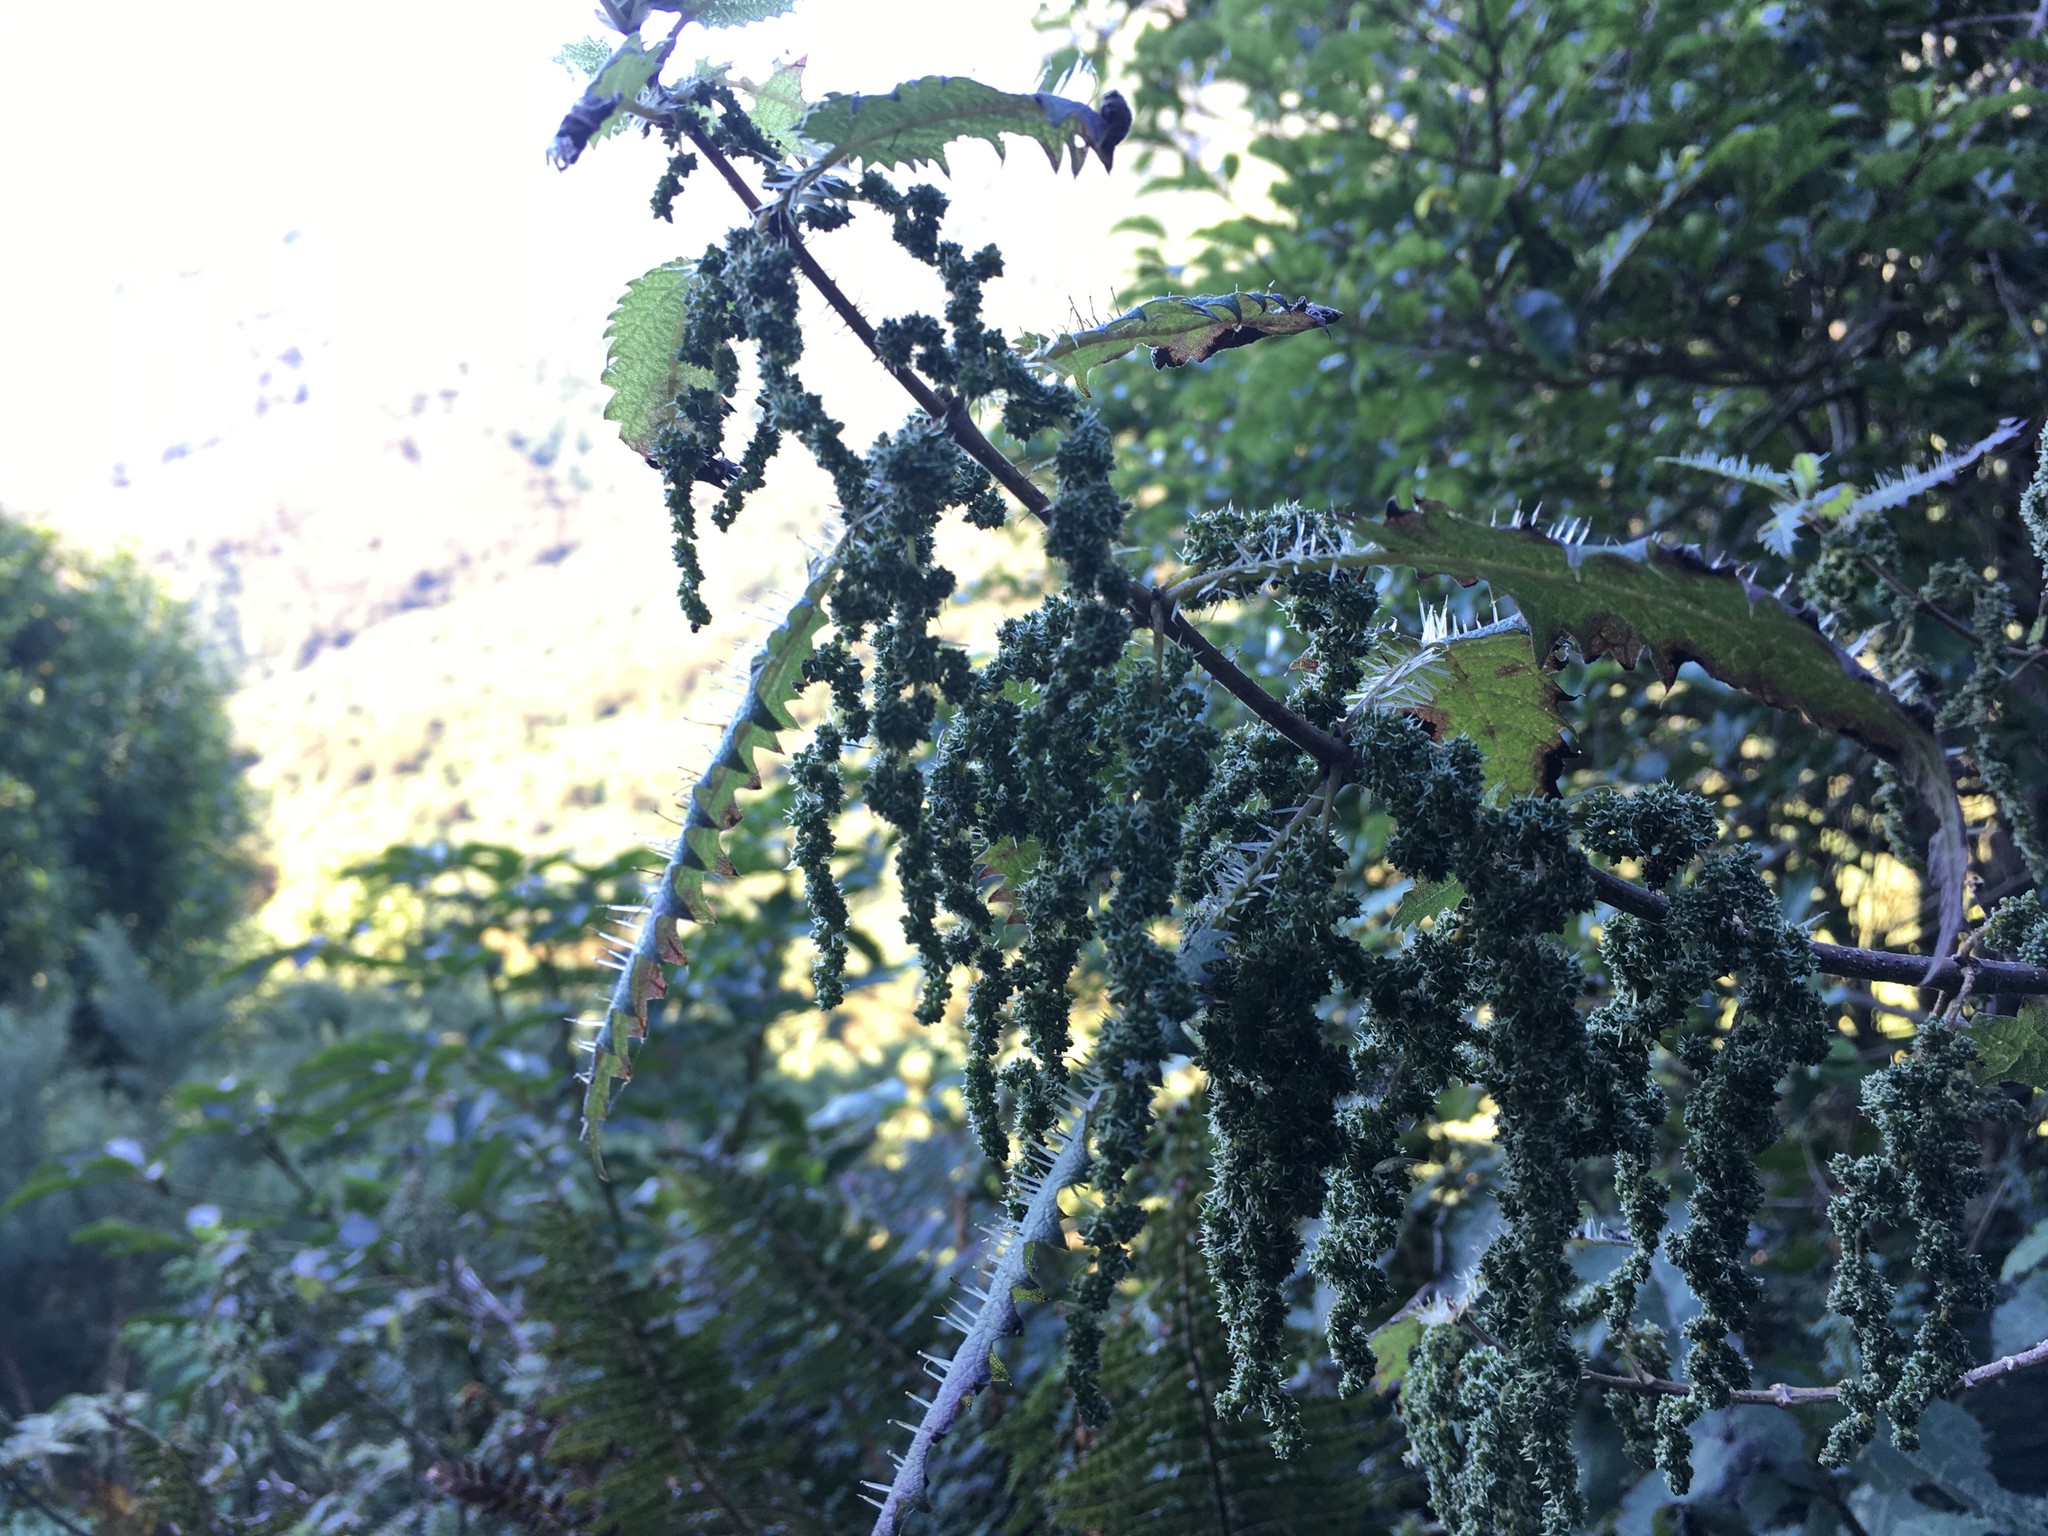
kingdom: Plantae
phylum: Tracheophyta
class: Magnoliopsida
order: Rosales
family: Urticaceae
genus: Urtica
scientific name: Urtica ferox
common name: Tree nettle
